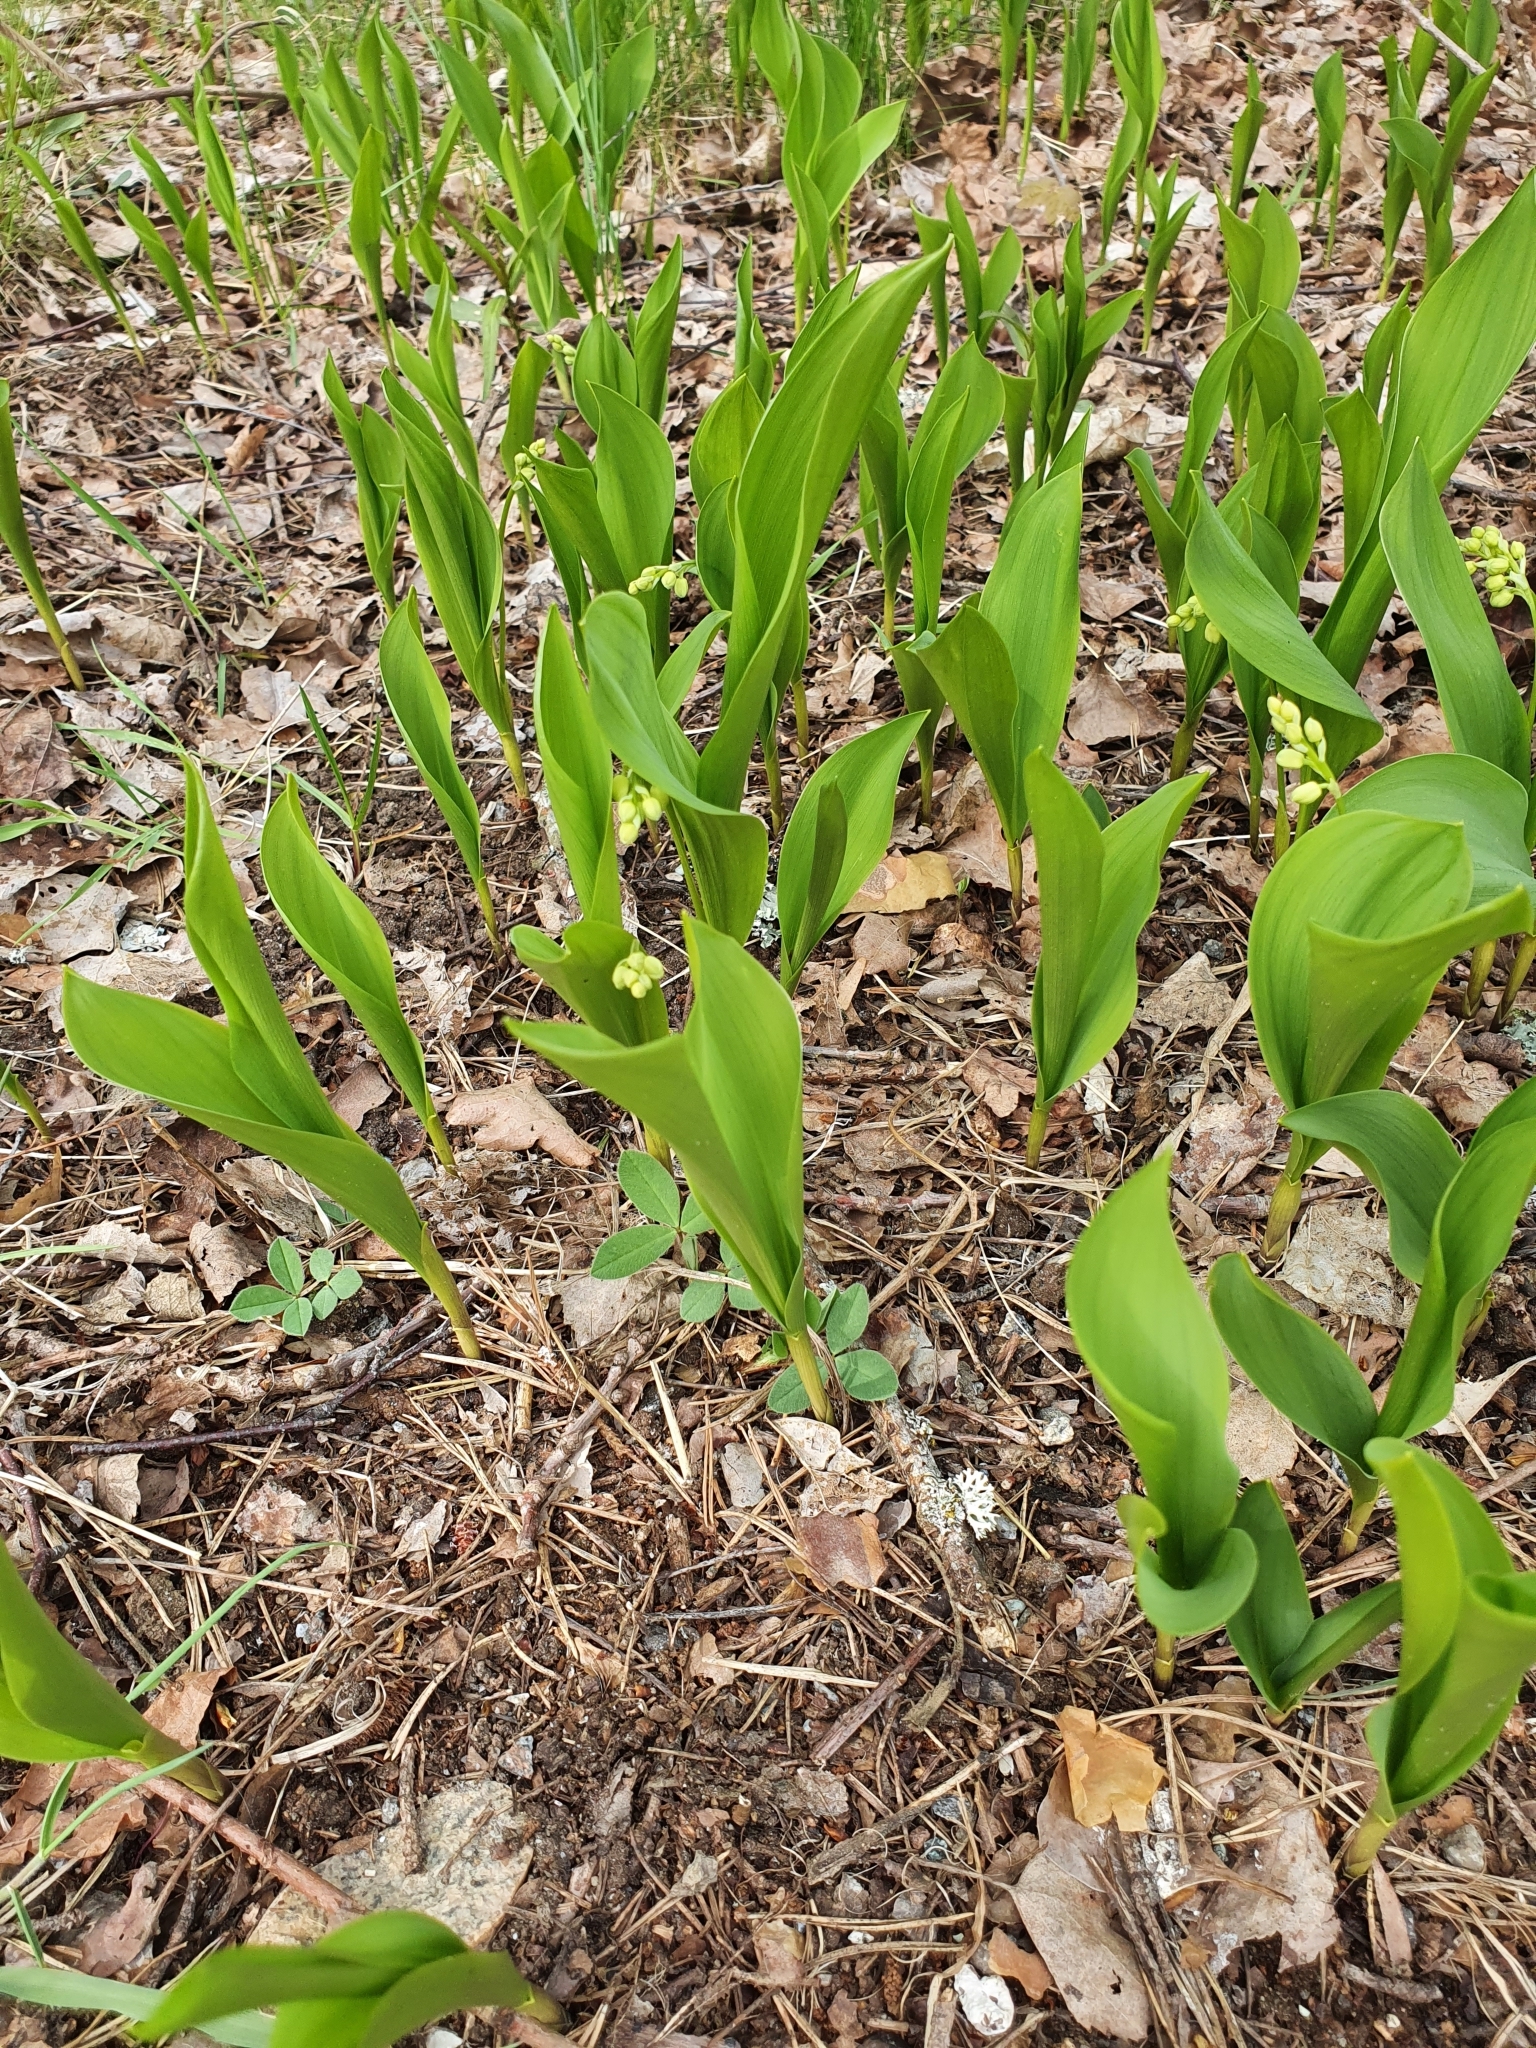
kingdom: Plantae
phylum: Tracheophyta
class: Liliopsida
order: Asparagales
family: Asparagaceae
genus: Convallaria
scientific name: Convallaria majalis
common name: Lily-of-the-valley
